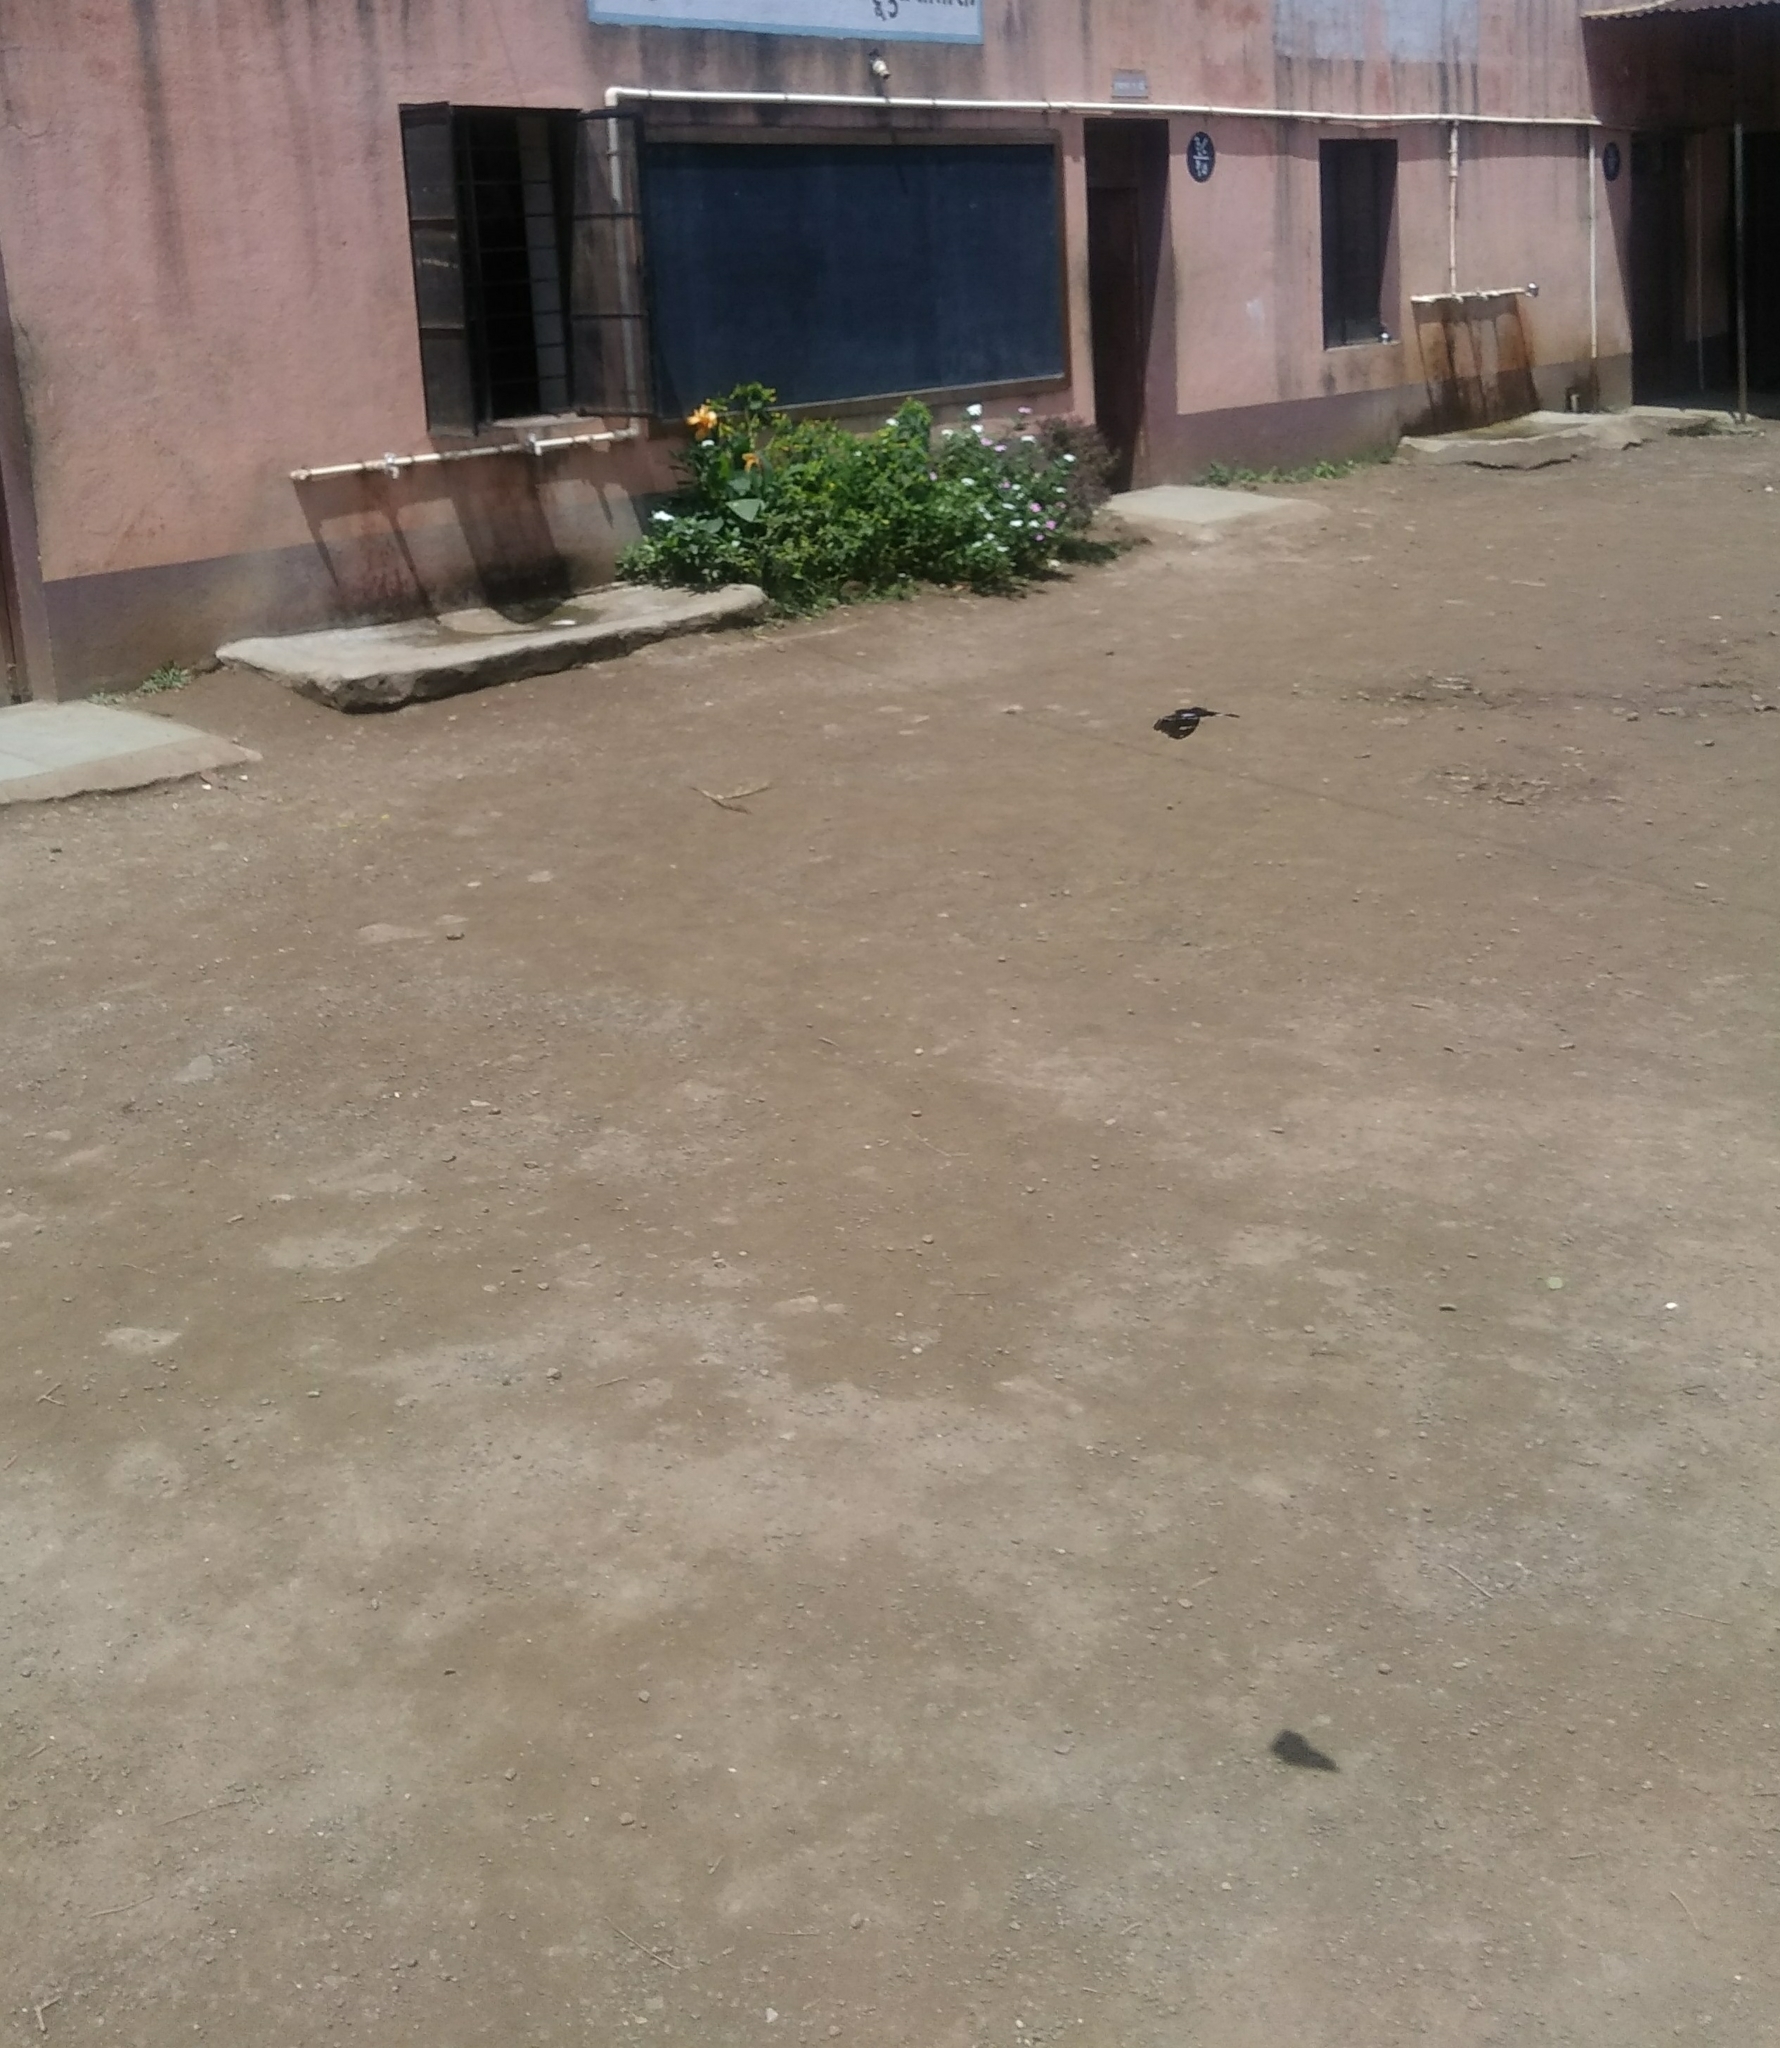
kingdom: Animalia
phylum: Arthropoda
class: Insecta
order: Lepidoptera
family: Nymphalidae
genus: Hypolimnas
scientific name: Hypolimnas bolina
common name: Great eggfly
